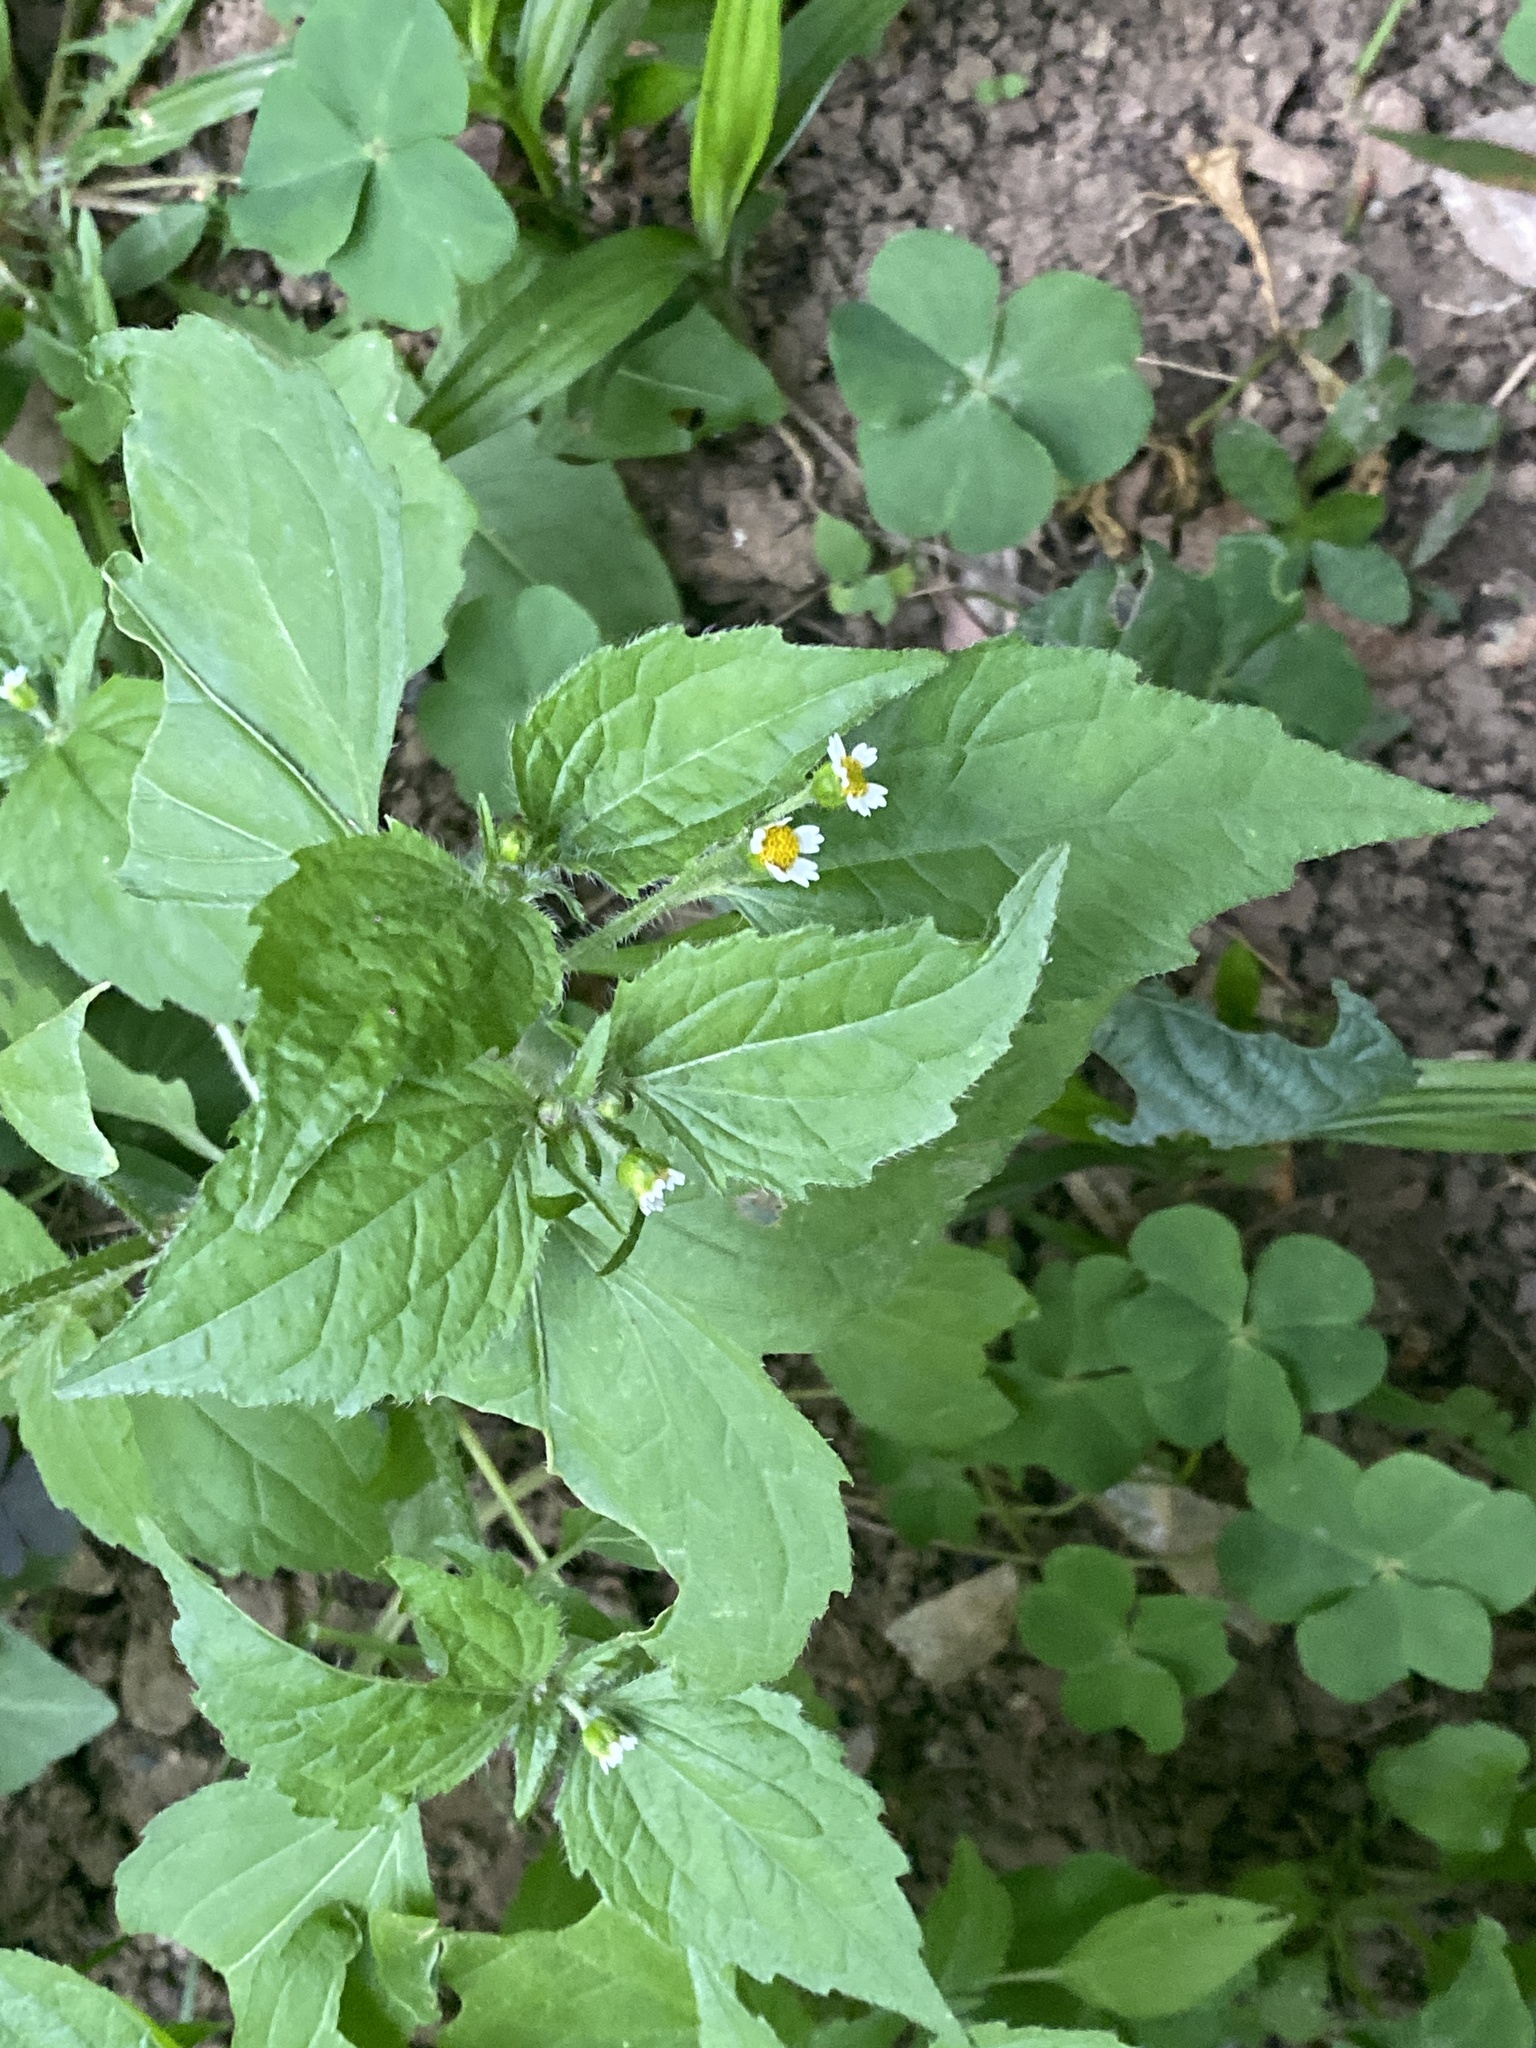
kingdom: Plantae
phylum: Tracheophyta
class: Magnoliopsida
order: Asterales
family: Asteraceae
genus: Galinsoga
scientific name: Galinsoga quadriradiata
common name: Shaggy soldier
